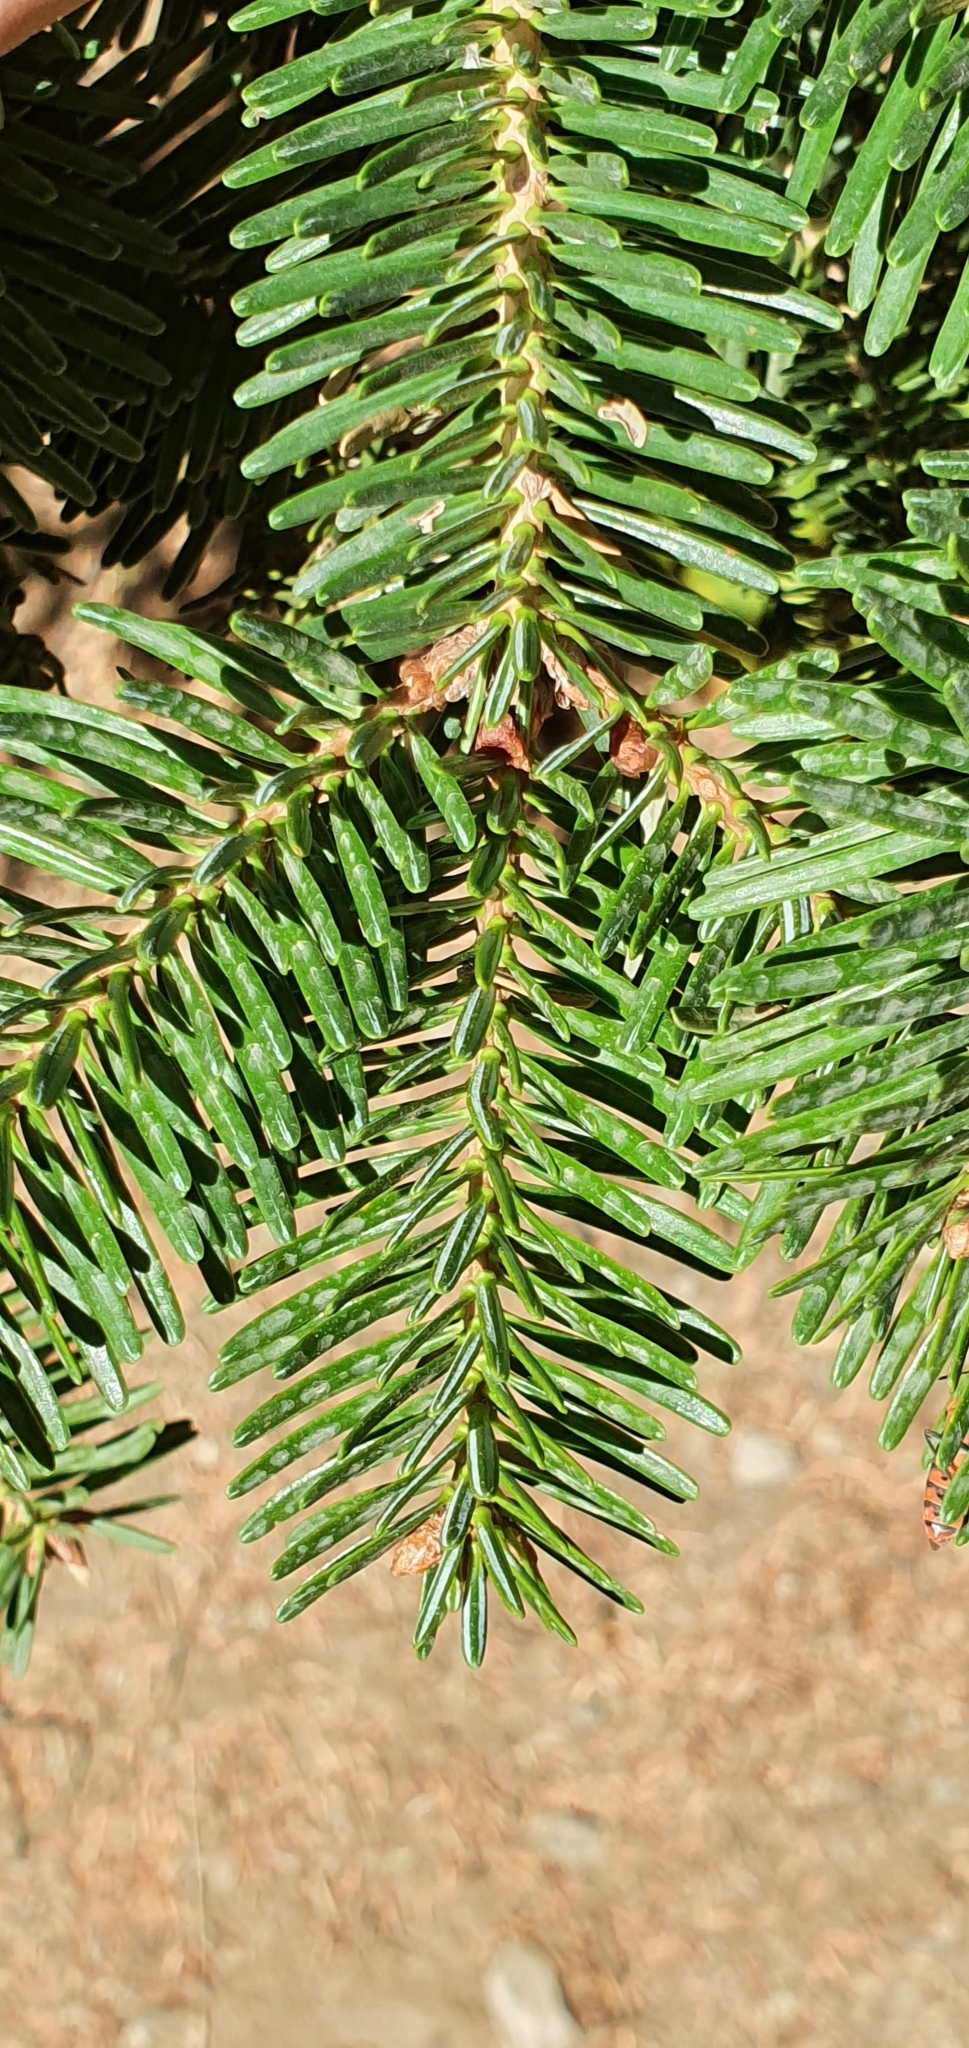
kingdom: Plantae
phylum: Tracheophyta
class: Pinopsida
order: Pinales
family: Pinaceae
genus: Abies
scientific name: Abies numidica
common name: Algerian fir
